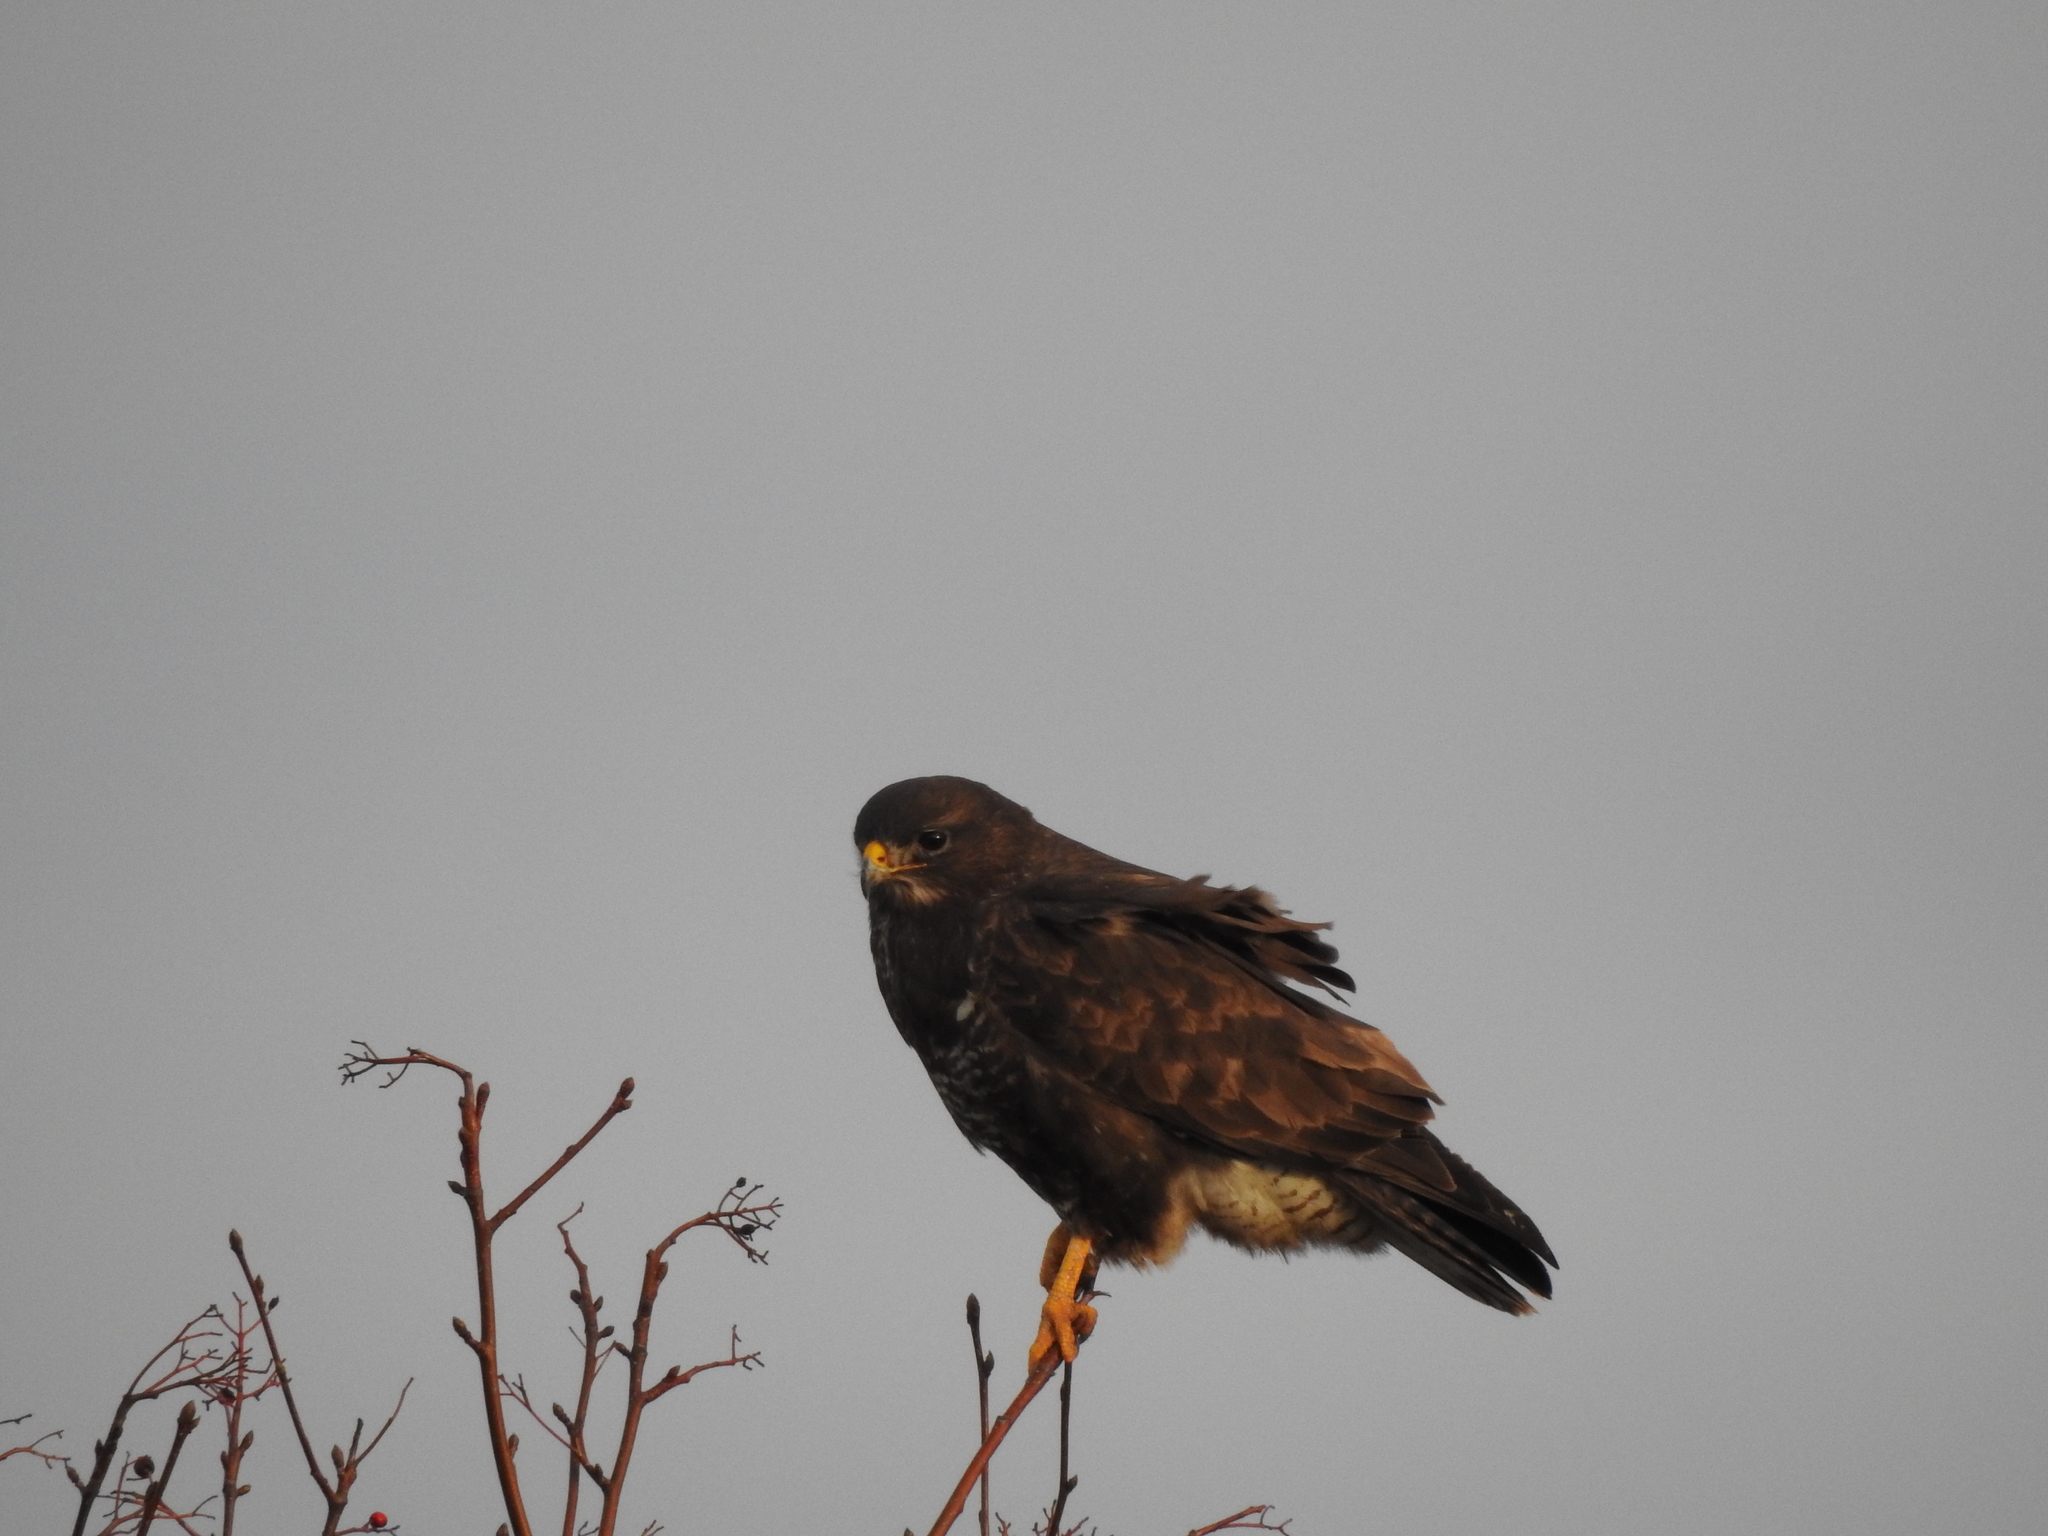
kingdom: Animalia
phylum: Chordata
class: Aves
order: Accipitriformes
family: Accipitridae
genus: Buteo
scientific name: Buteo buteo
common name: Common buzzard
